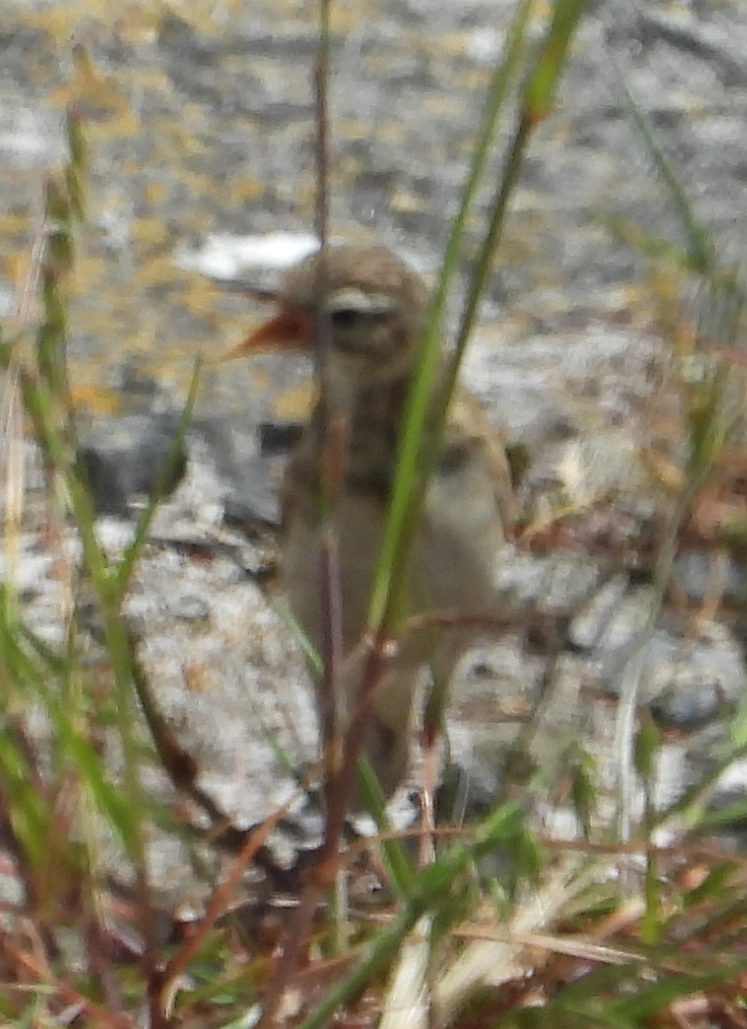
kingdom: Animalia
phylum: Chordata
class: Aves
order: Passeriformes
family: Motacillidae
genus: Anthus
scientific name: Anthus cinnamomeus
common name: African pipit
